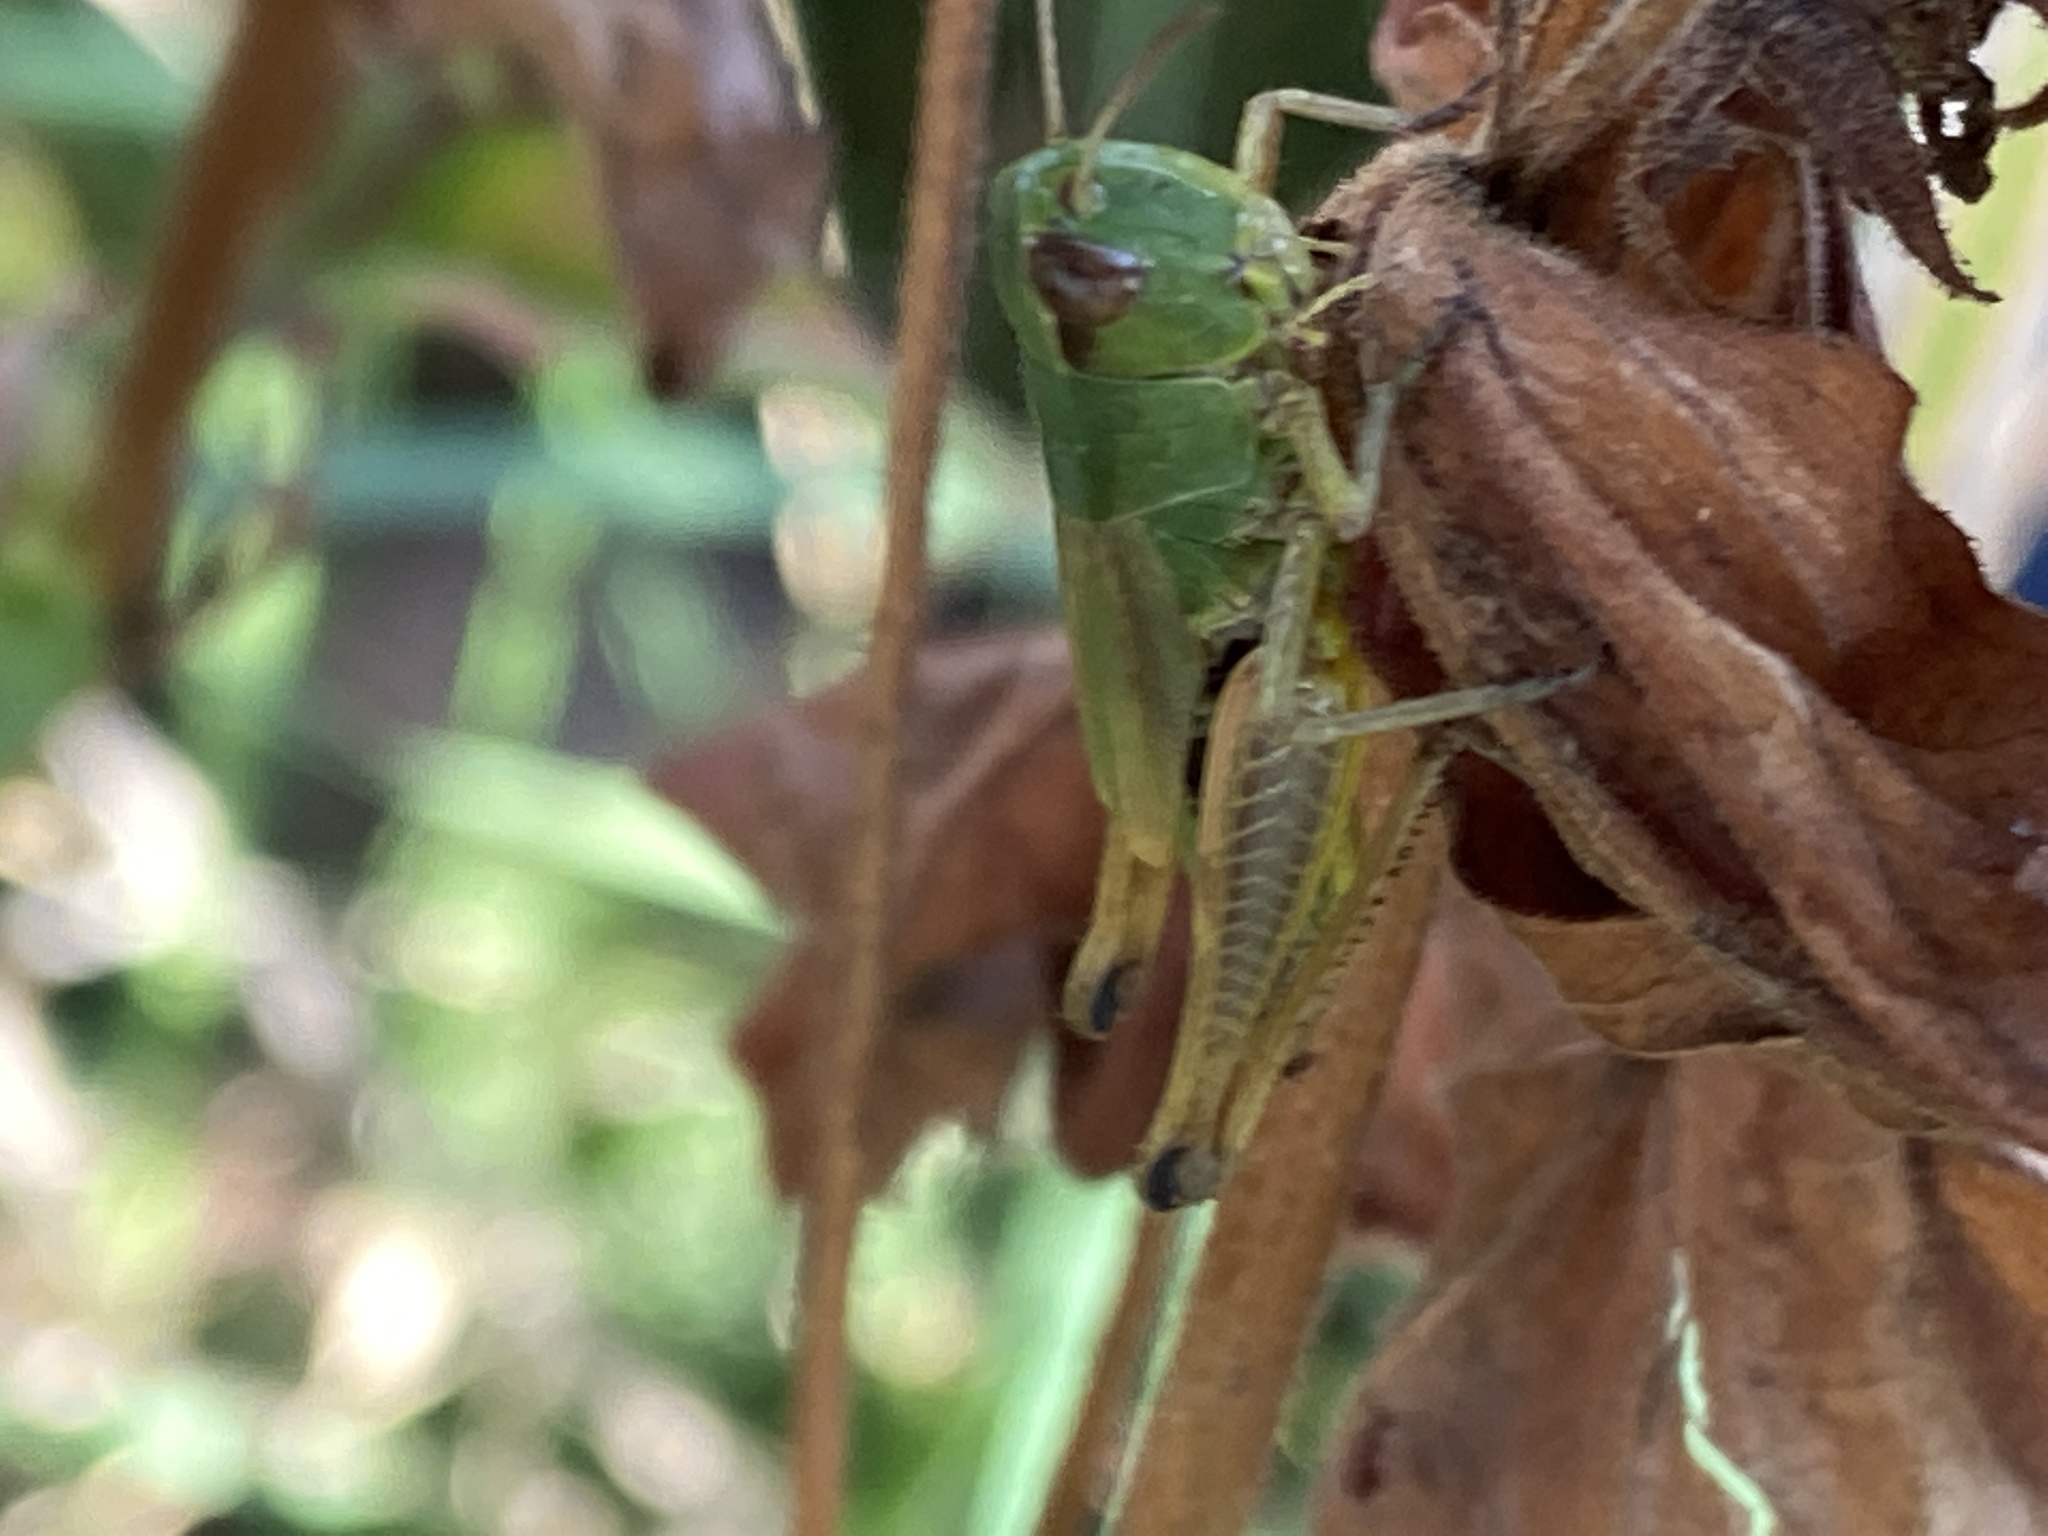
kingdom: Animalia
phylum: Arthropoda
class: Insecta
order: Orthoptera
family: Acrididae
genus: Pseudochorthippus
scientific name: Pseudochorthippus parallelus
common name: Meadow grasshopper
